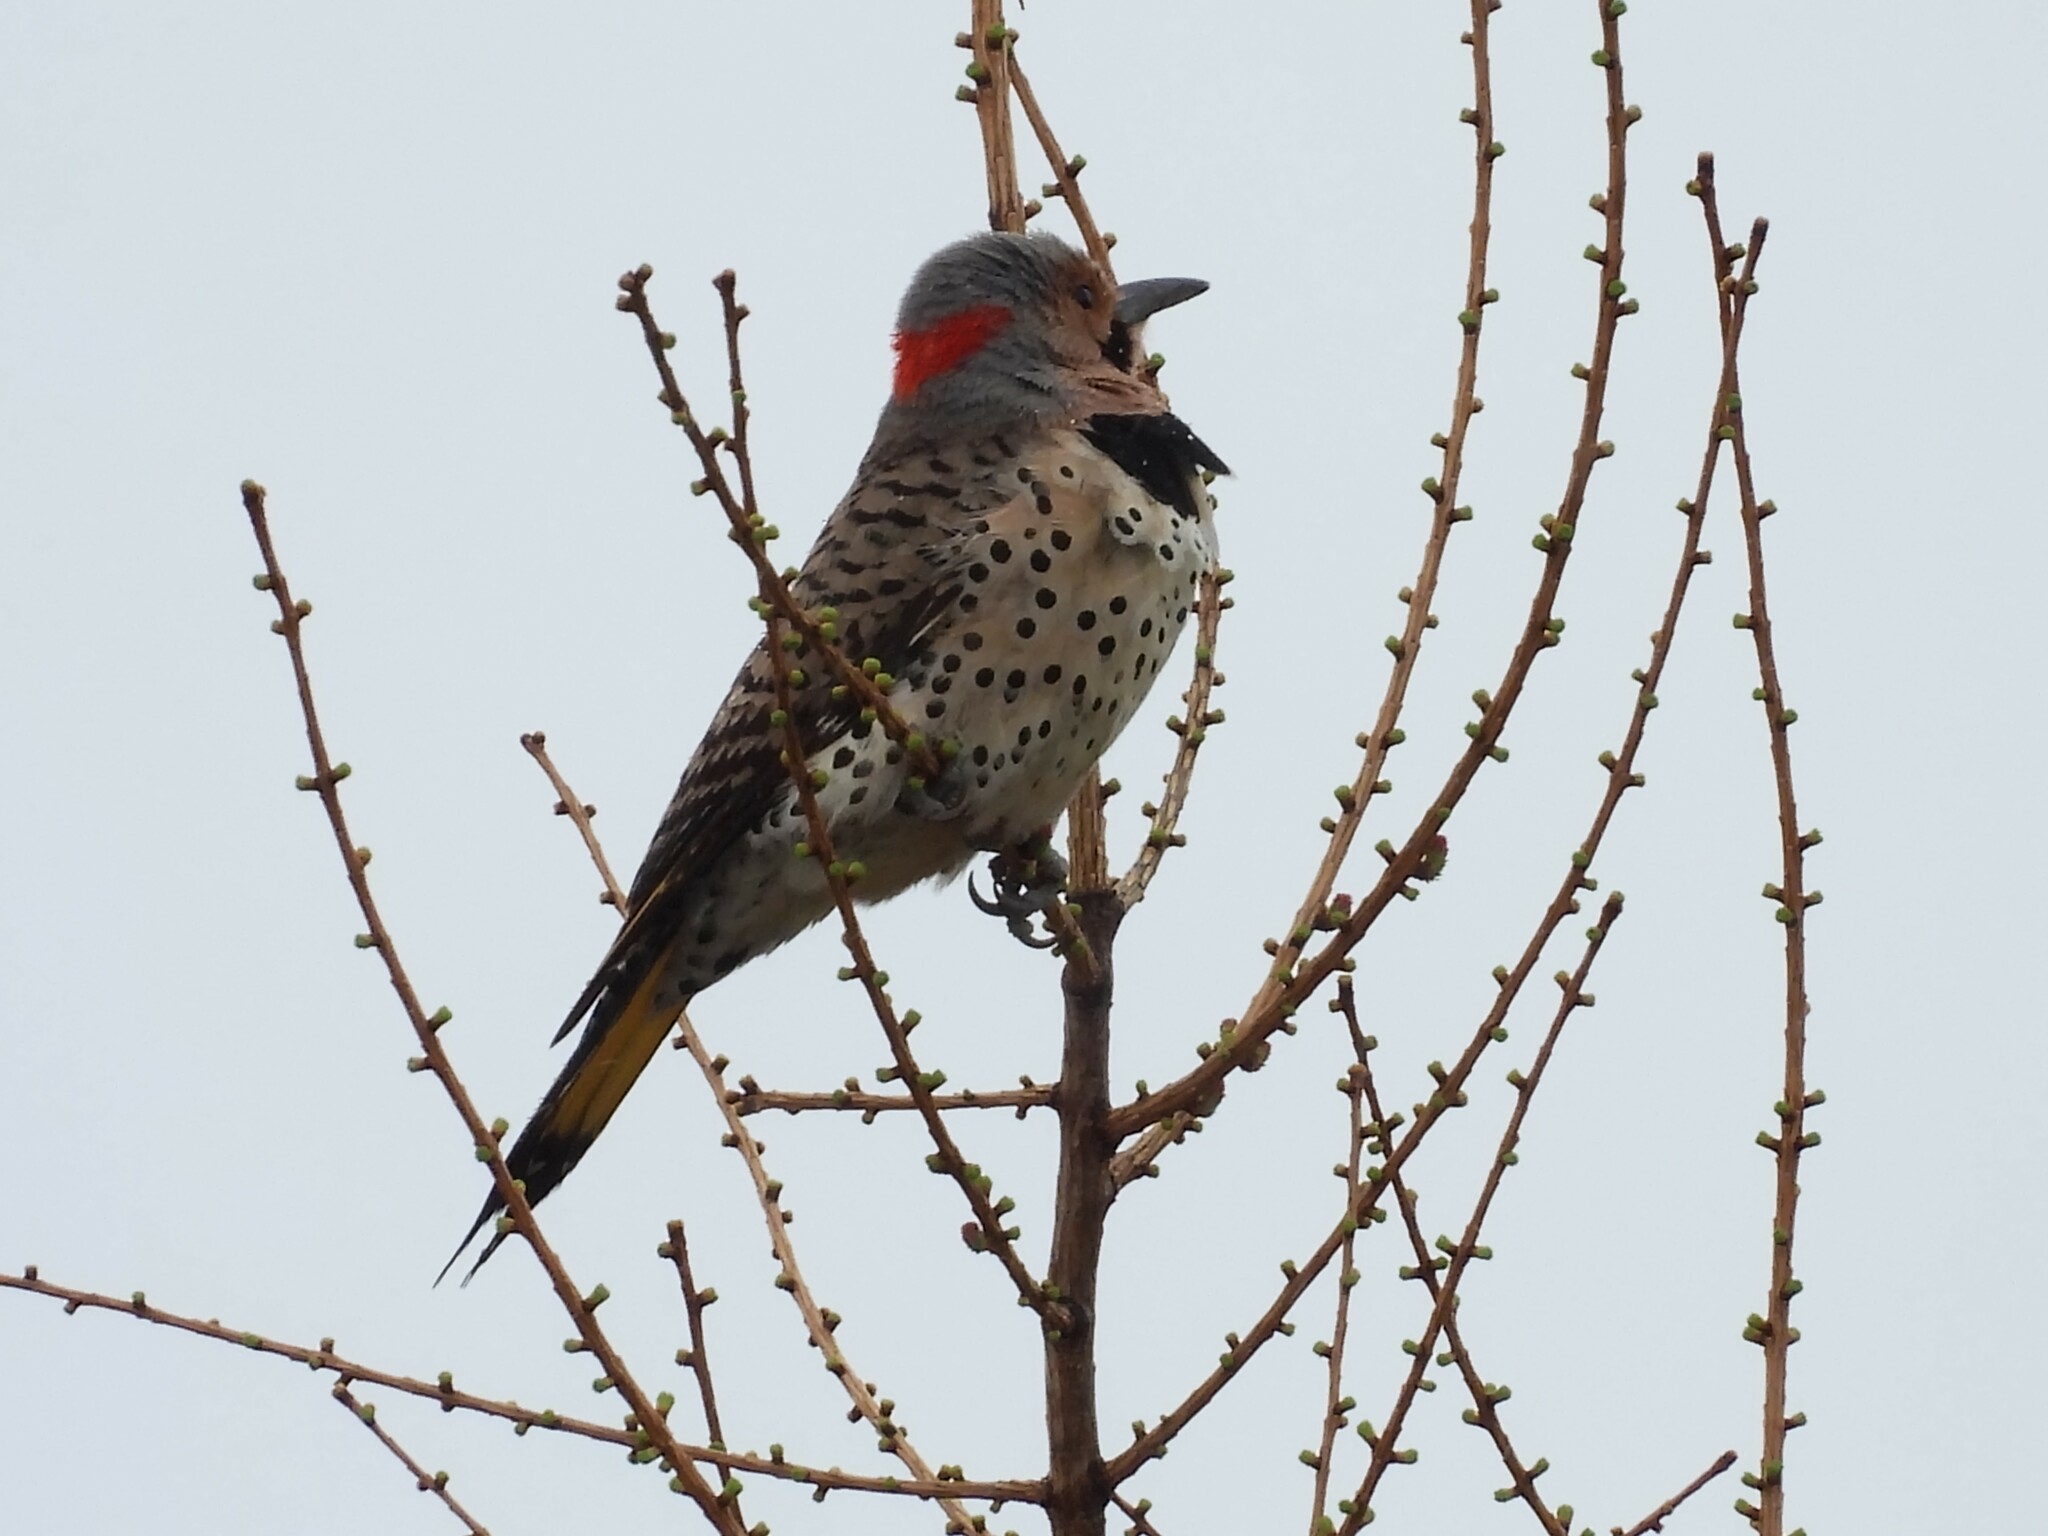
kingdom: Animalia
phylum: Chordata
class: Aves
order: Piciformes
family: Picidae
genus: Colaptes
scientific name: Colaptes auratus
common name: Northern flicker
